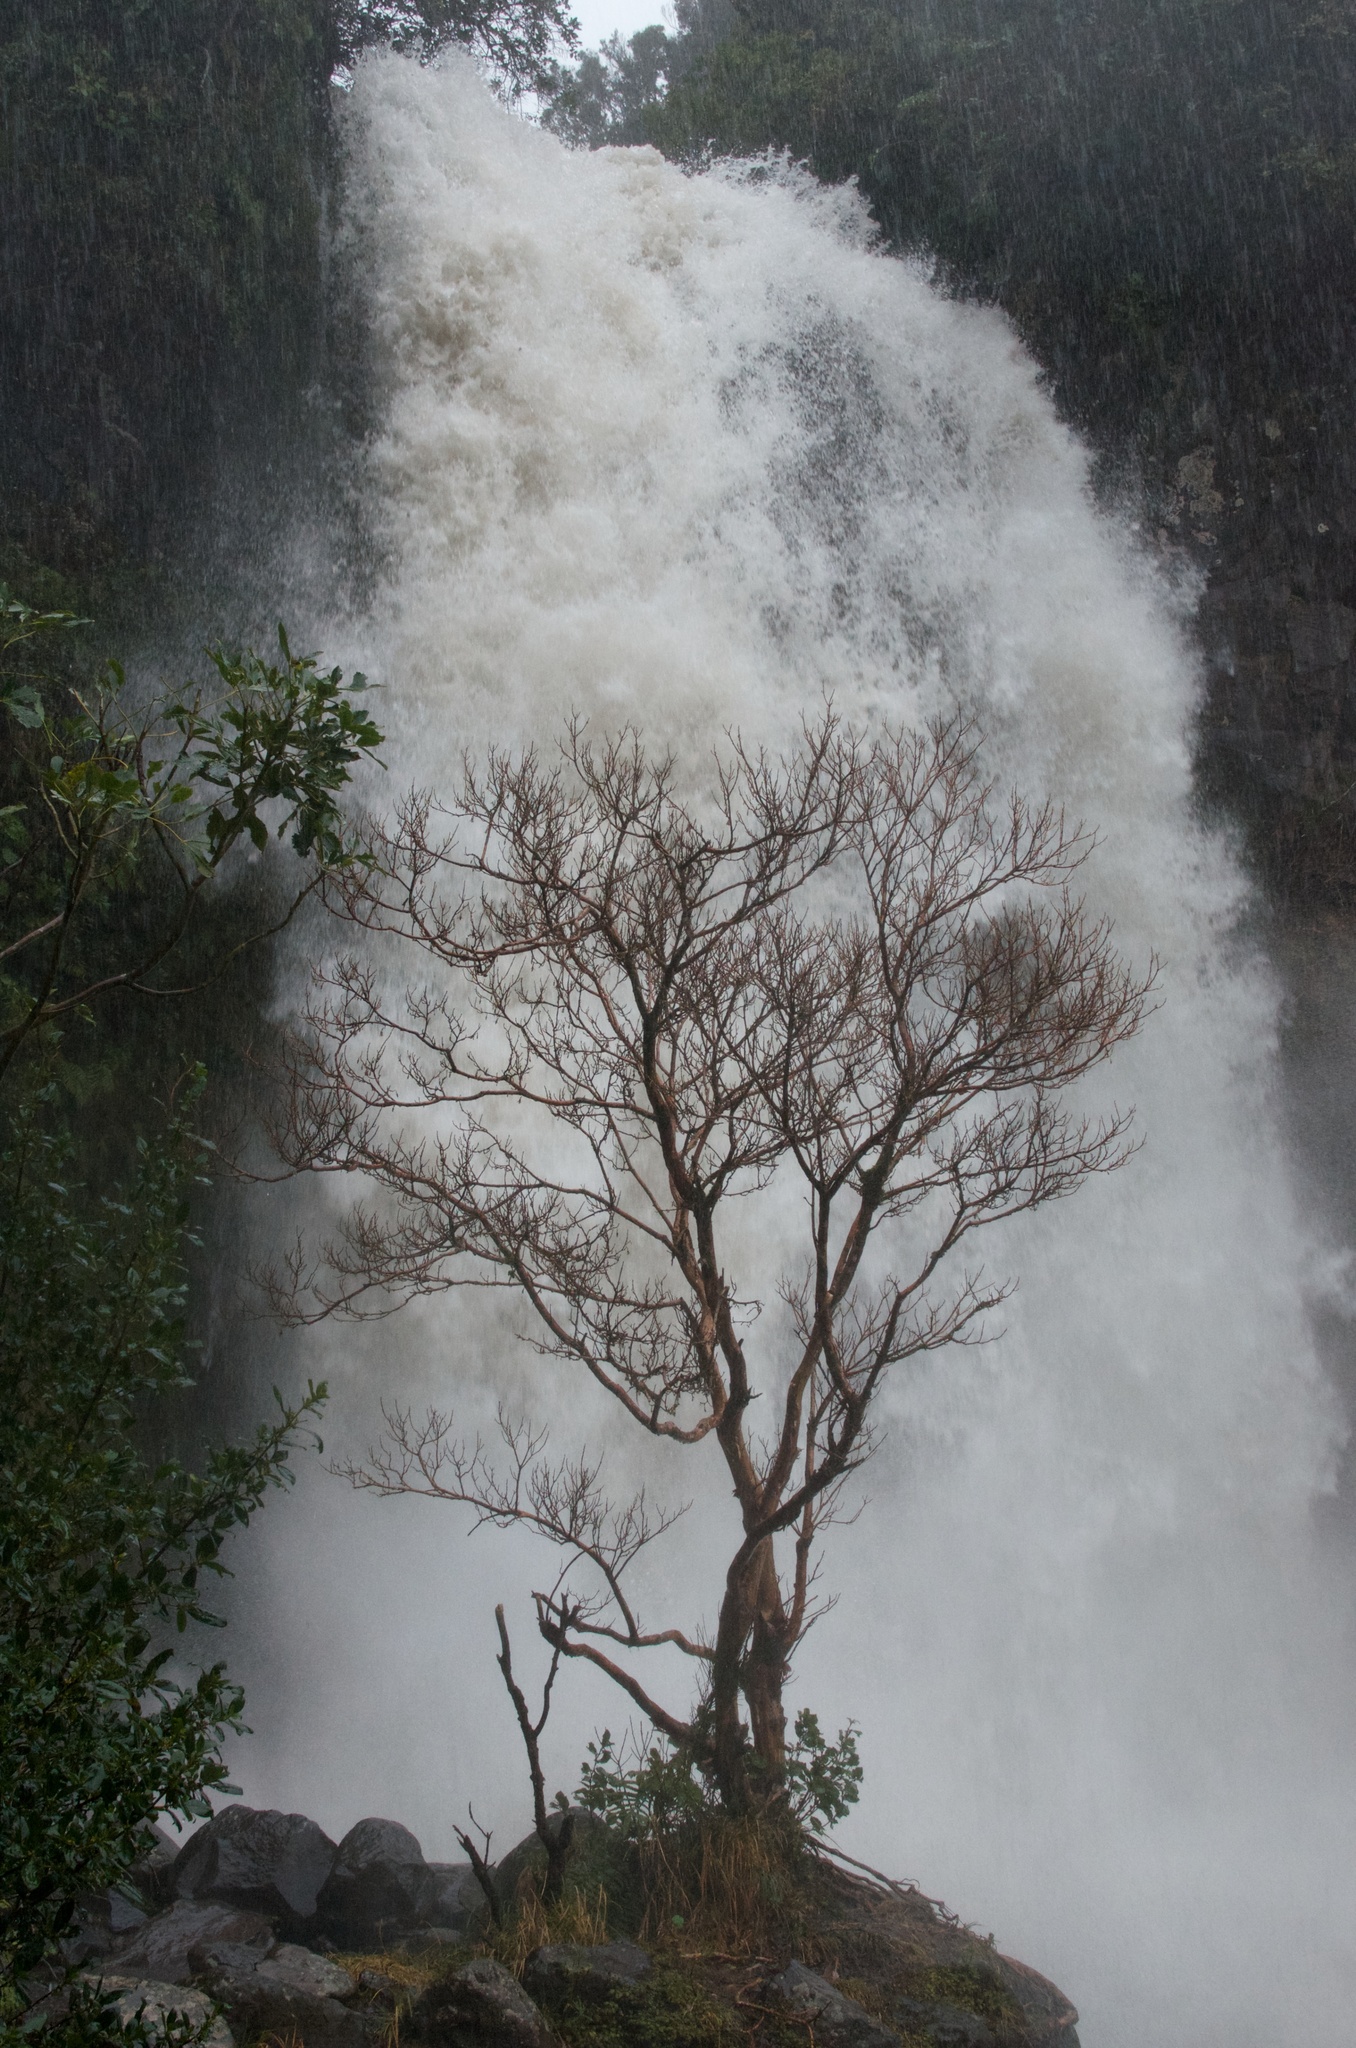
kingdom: Plantae
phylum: Tracheophyta
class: Magnoliopsida
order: Myrtales
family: Onagraceae
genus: Fuchsia
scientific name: Fuchsia excorticata
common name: Tree fuchsia
